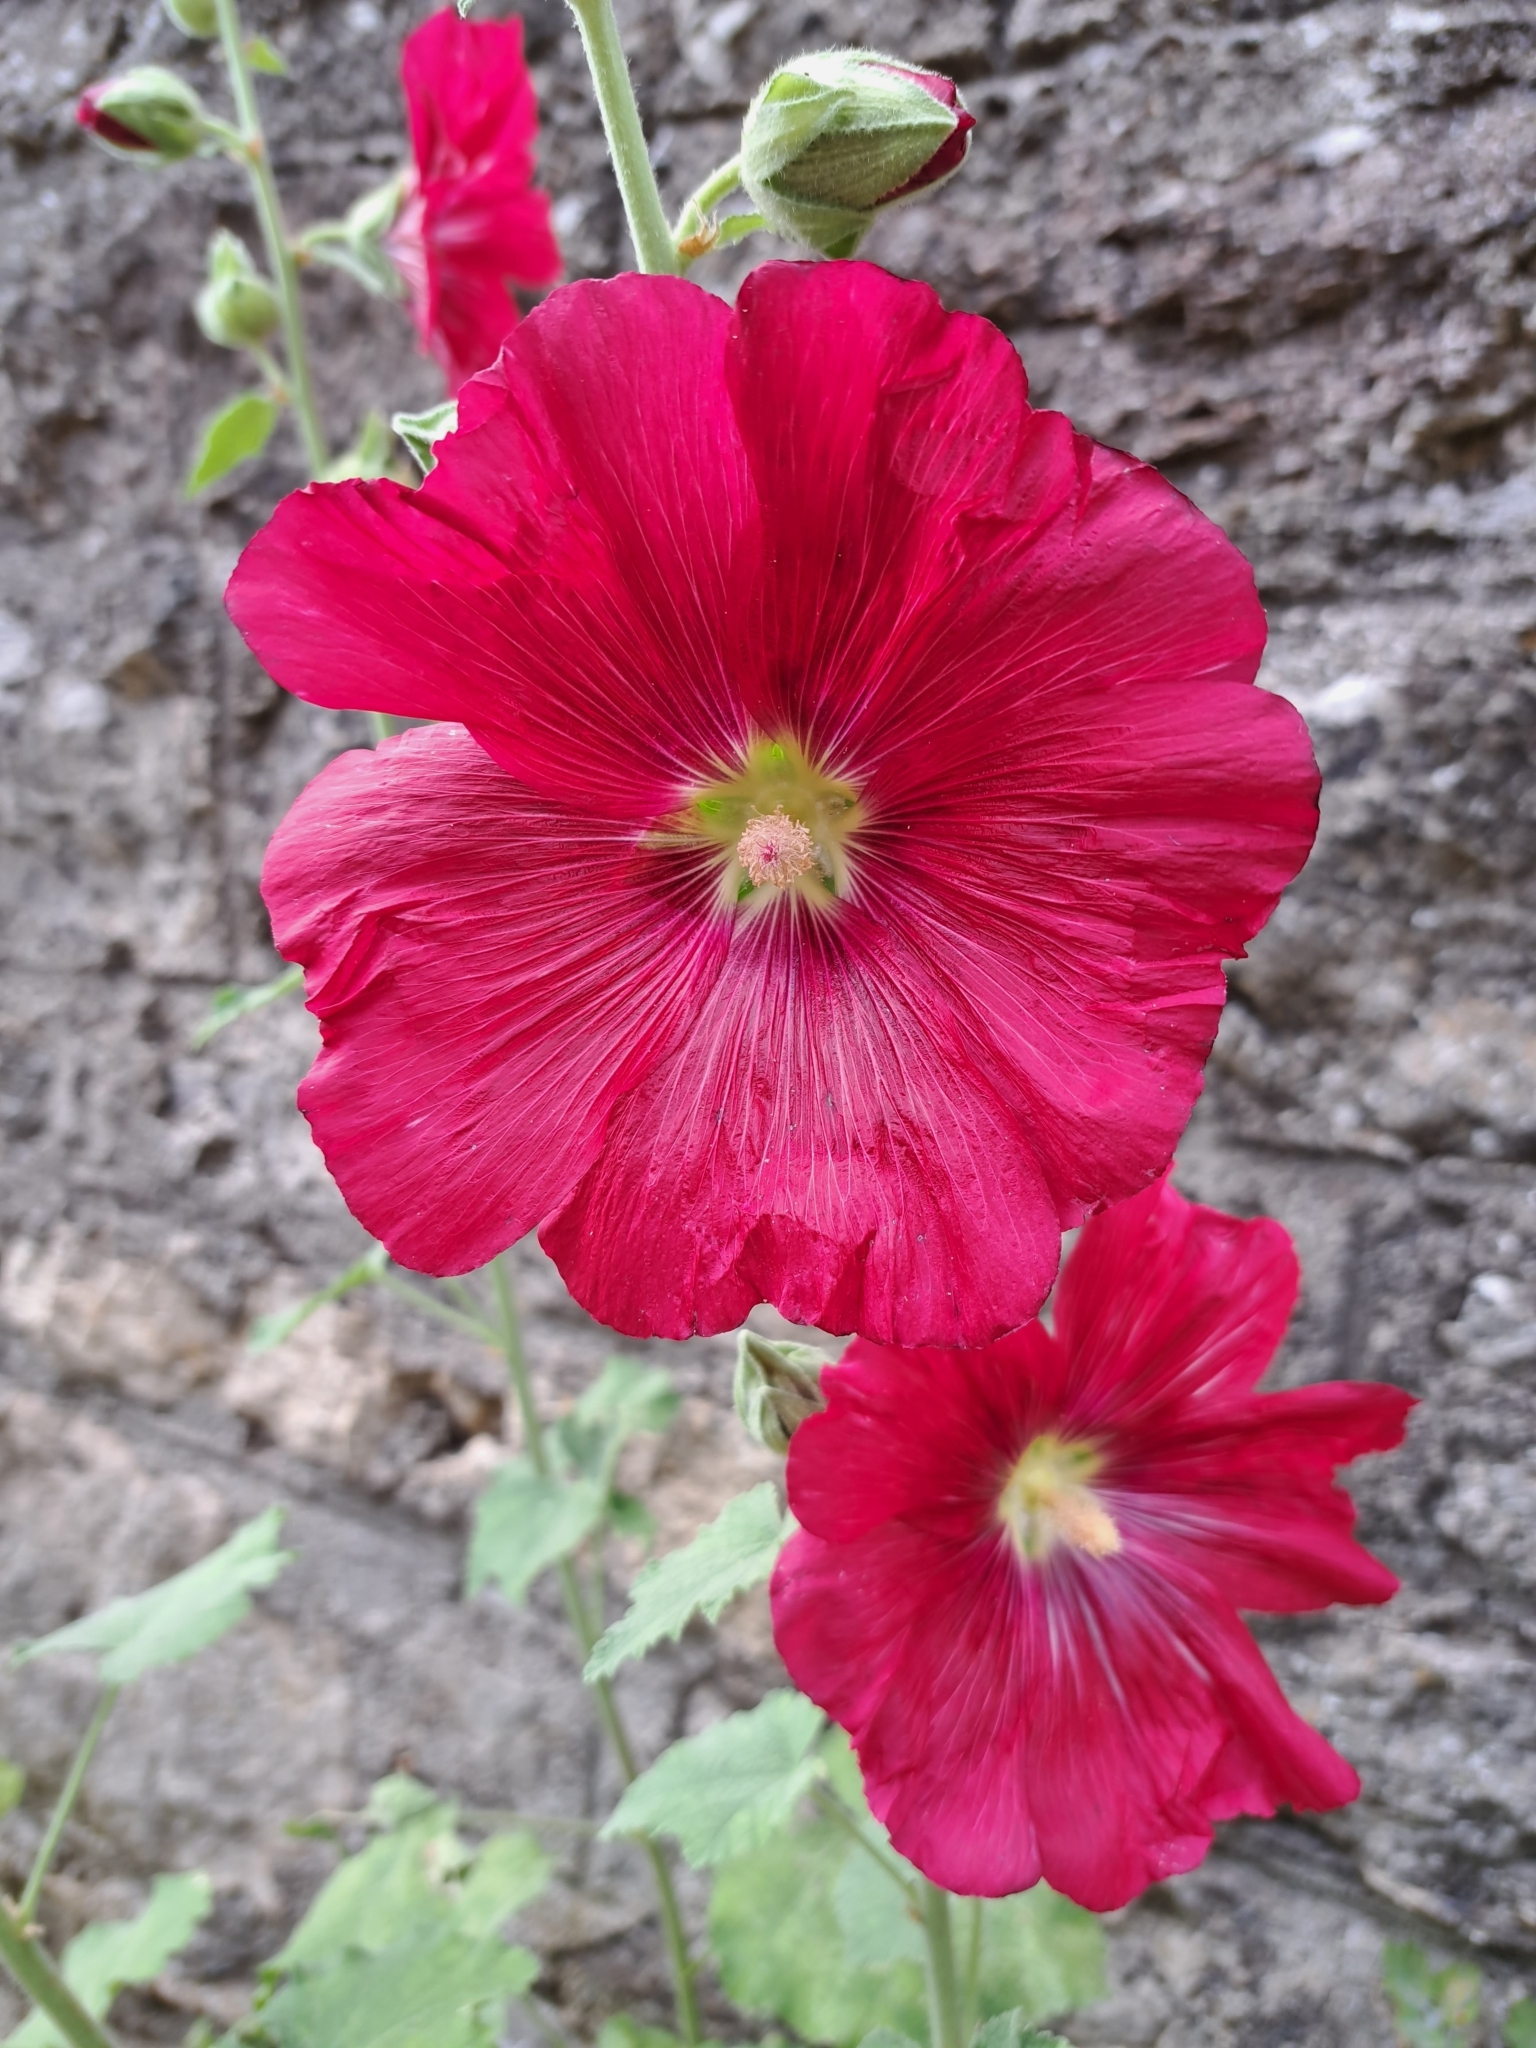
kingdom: Plantae
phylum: Tracheophyta
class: Magnoliopsida
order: Malvales
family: Malvaceae
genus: Alcea
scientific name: Alcea rosea
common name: Hollyhock
